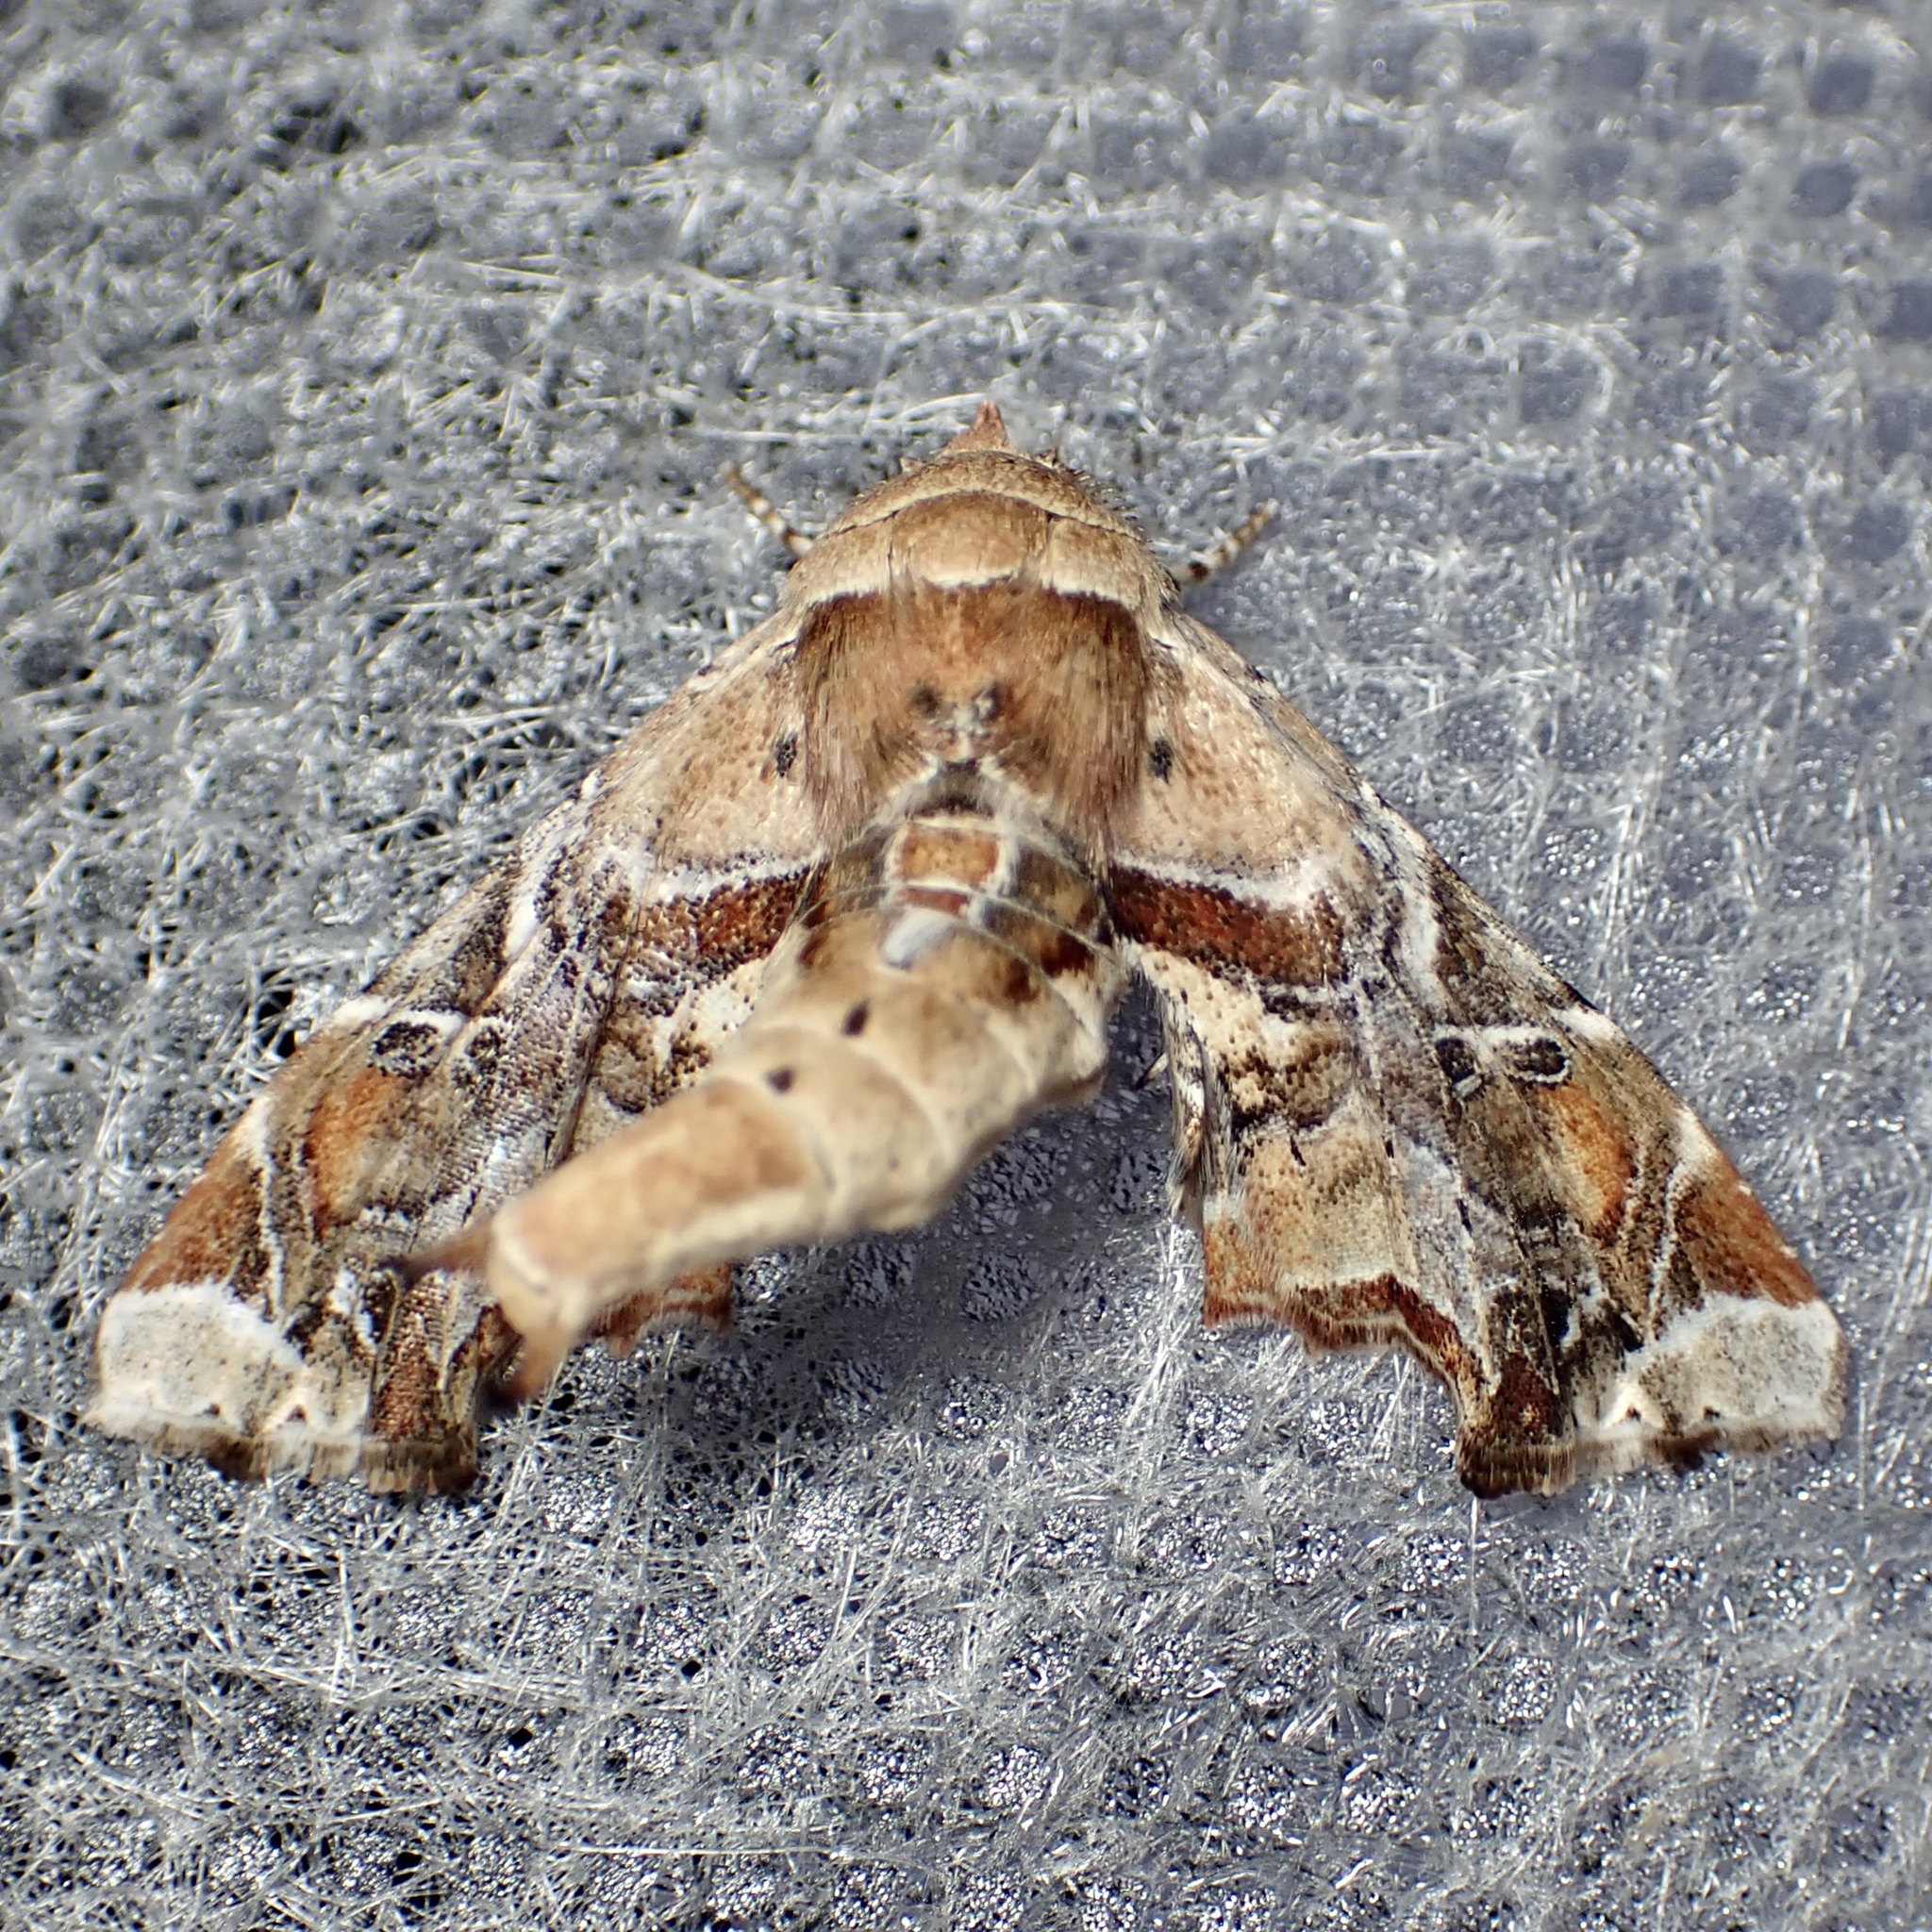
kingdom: Animalia
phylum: Arthropoda
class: Insecta
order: Lepidoptera
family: Euteliidae
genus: Eutelia
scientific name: Eutelia furcata
